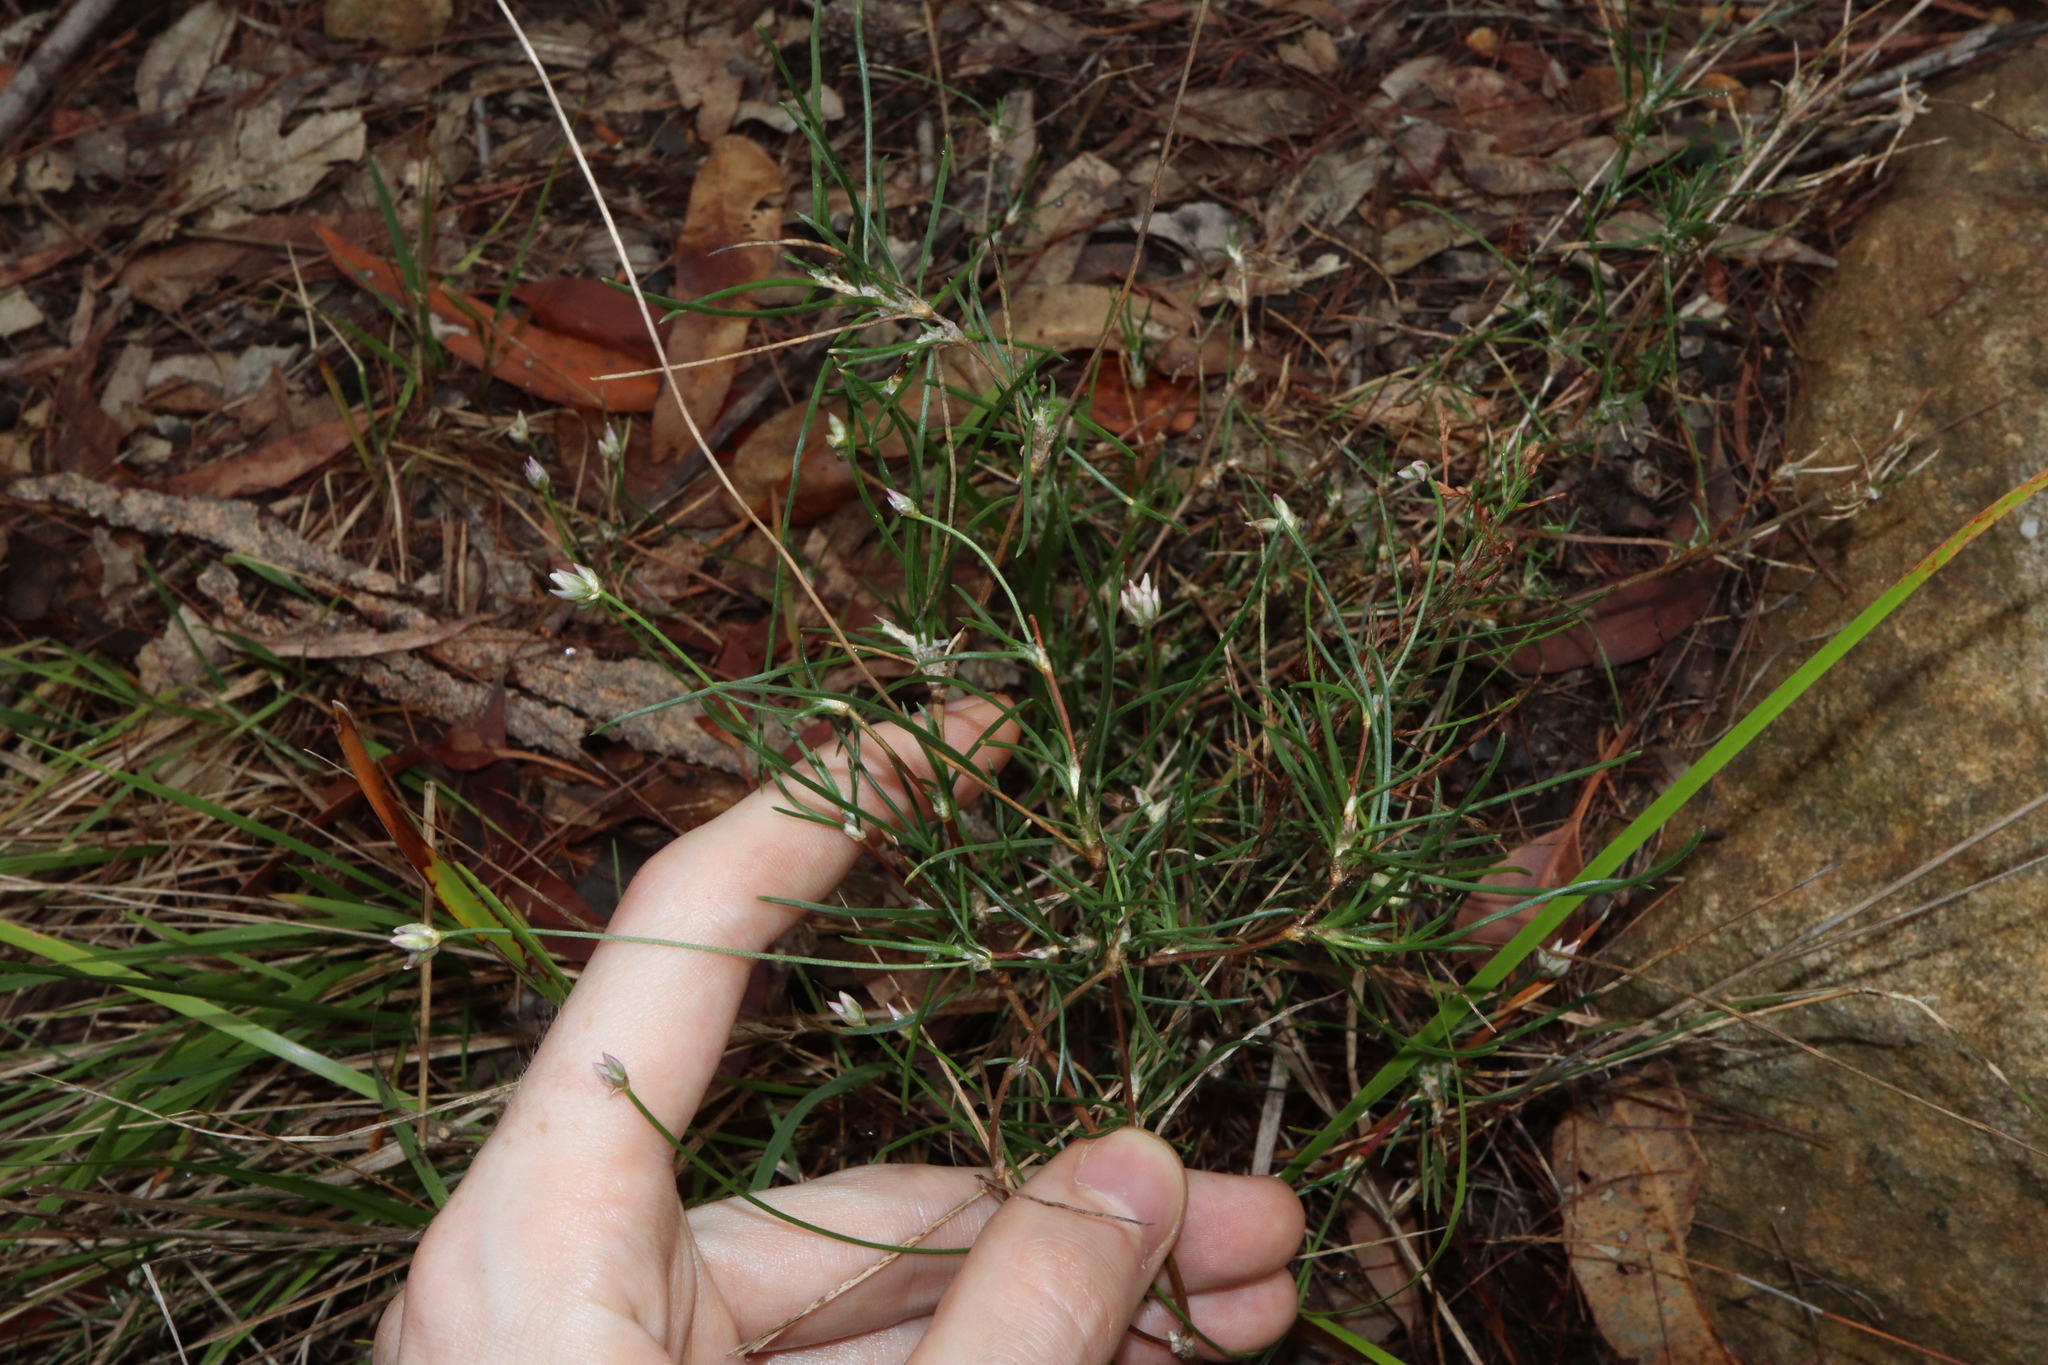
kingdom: Plantae
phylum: Tracheophyta
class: Liliopsida
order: Asparagales
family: Asparagaceae
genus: Laxmannia
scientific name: Laxmannia gracilis
